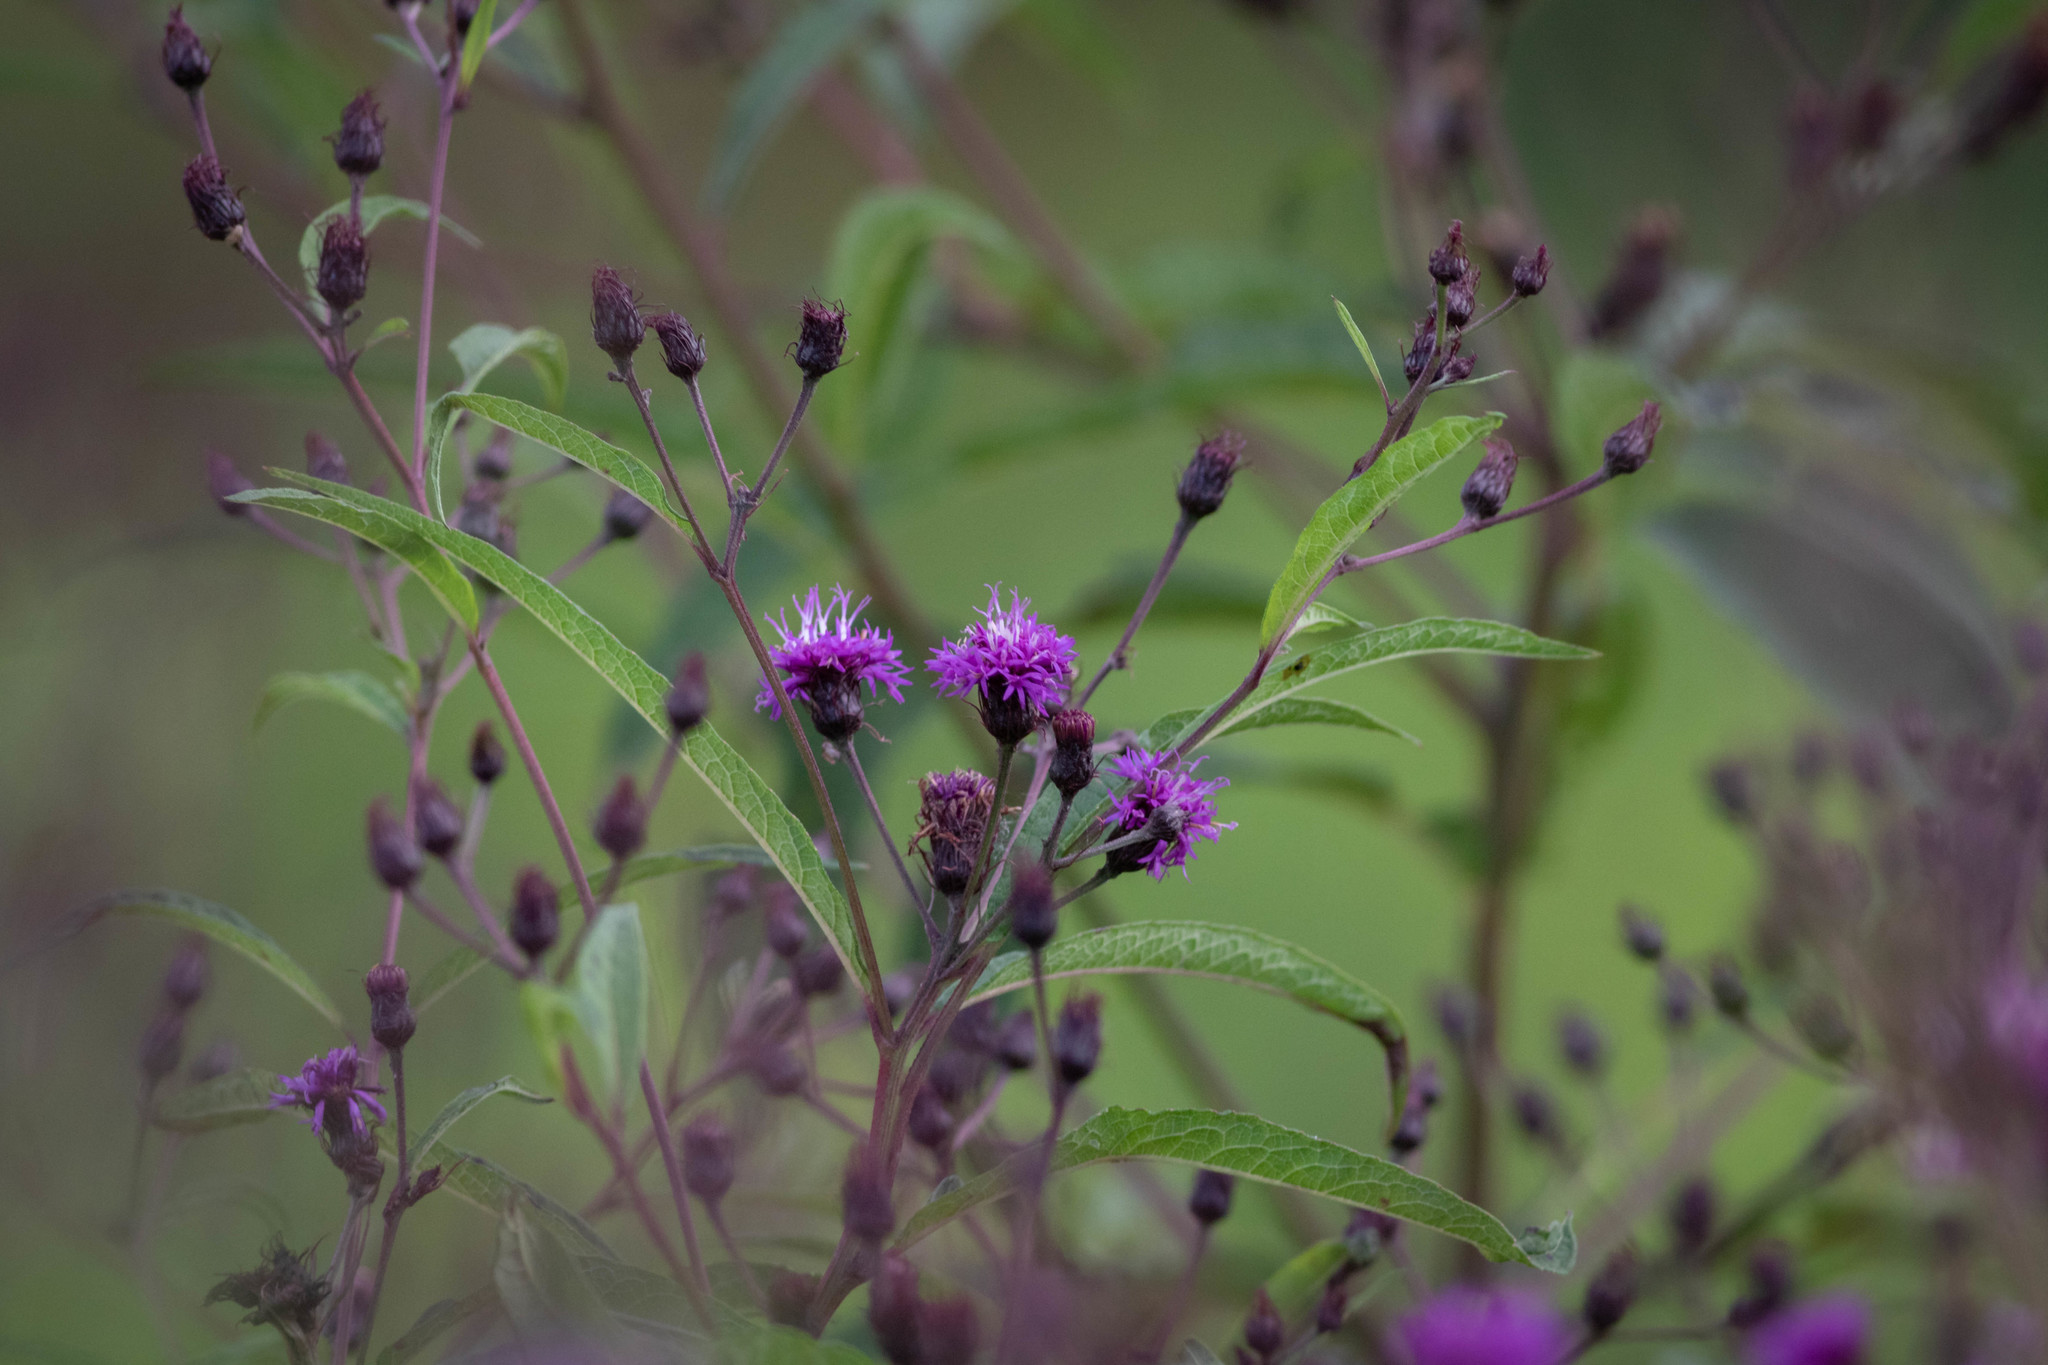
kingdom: Plantae
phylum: Tracheophyta
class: Magnoliopsida
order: Asterales
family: Asteraceae
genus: Vernonia
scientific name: Vernonia noveboracensis
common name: New york ironweed
